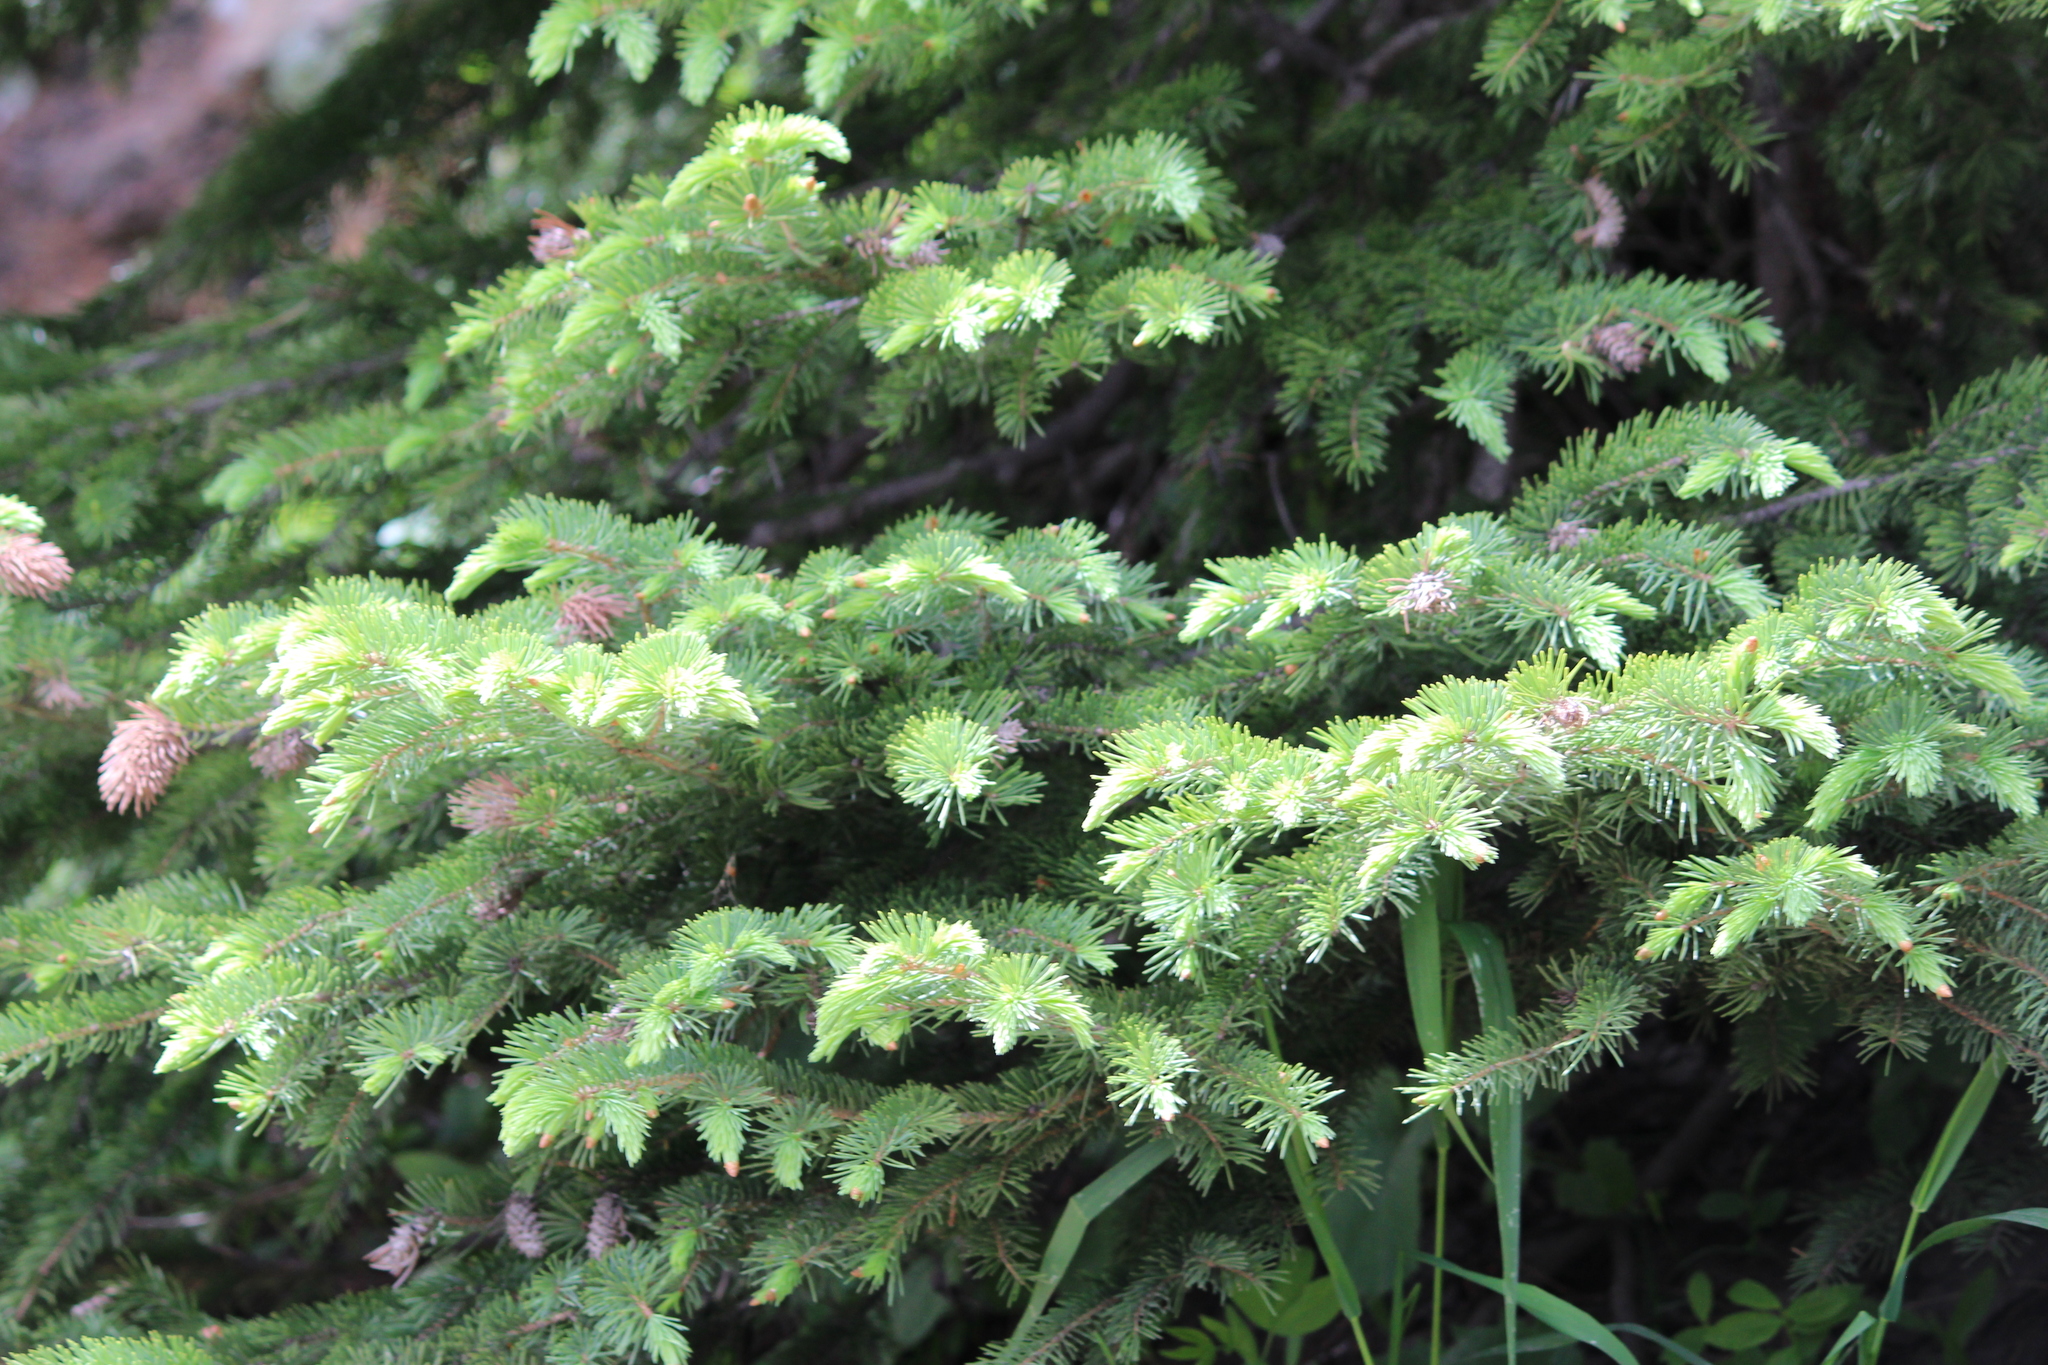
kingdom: Plantae
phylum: Tracheophyta
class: Pinopsida
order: Pinales
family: Pinaceae
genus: Pseudotsuga
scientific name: Pseudotsuga menziesii
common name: Douglas fir
